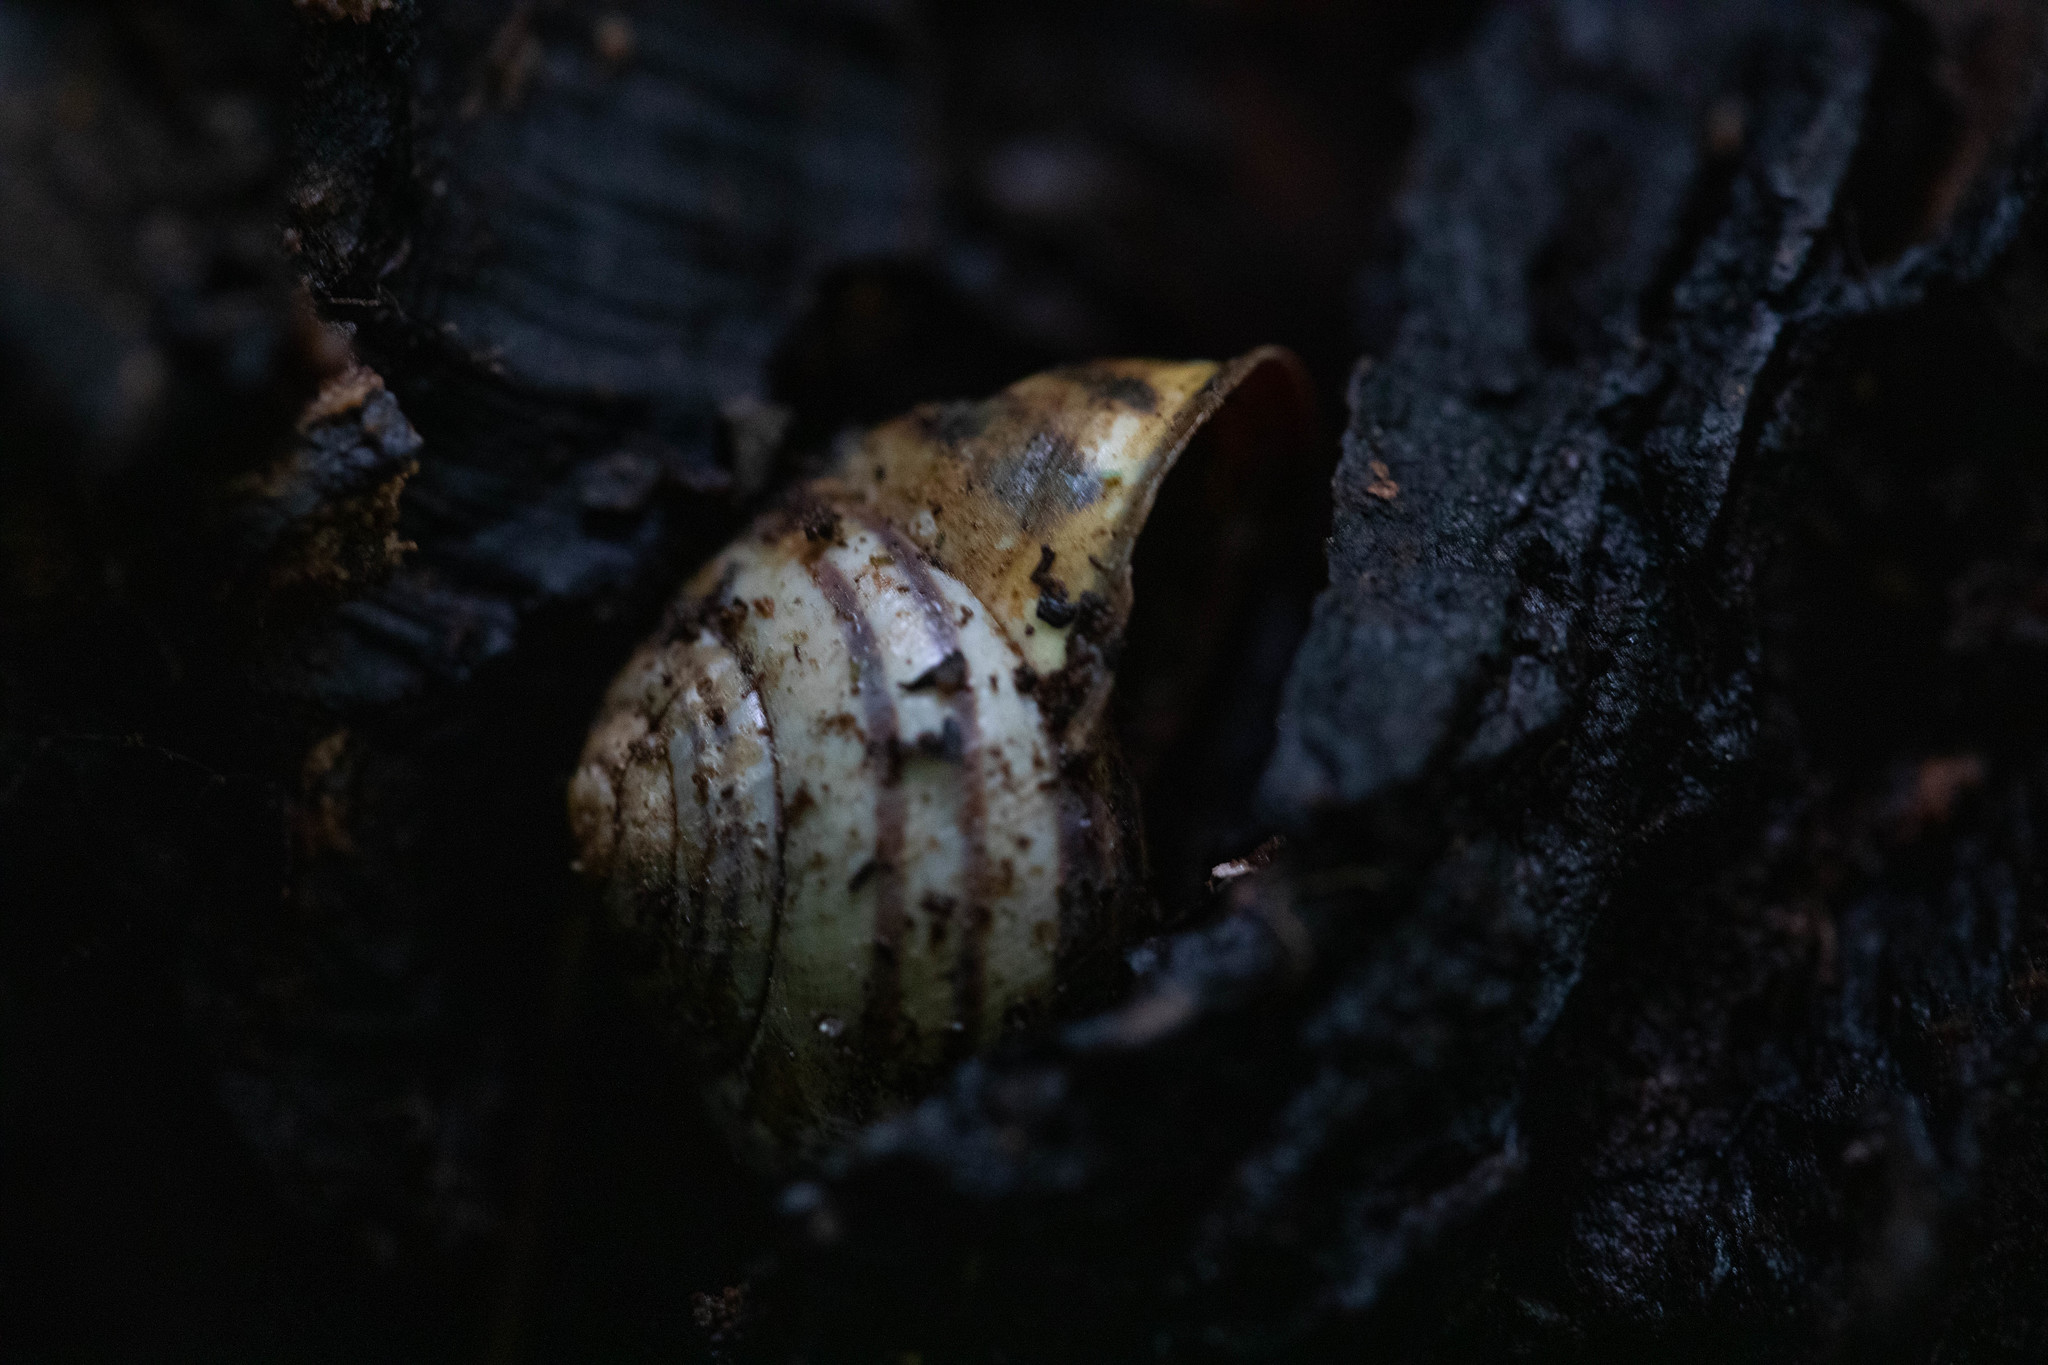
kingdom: Animalia
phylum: Mollusca
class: Gastropoda
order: Stylommatophora
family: Helicidae
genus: Cepaea
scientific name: Cepaea nemoralis
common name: Grovesnail
